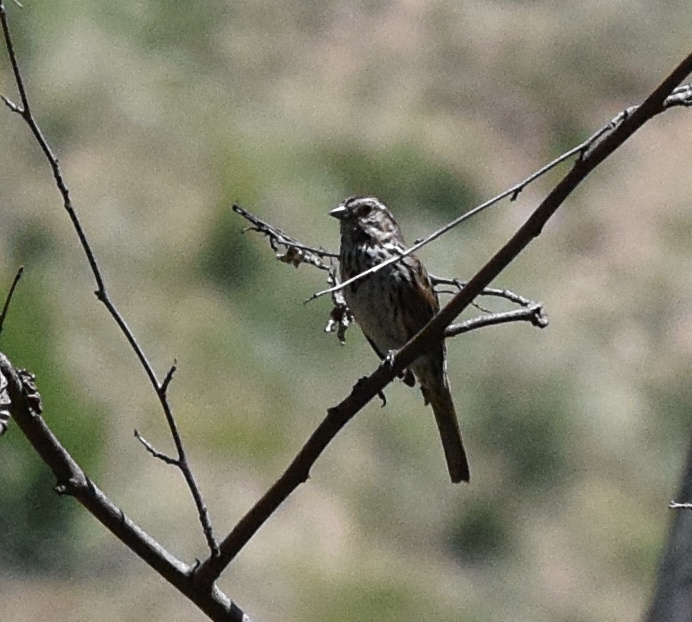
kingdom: Animalia
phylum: Chordata
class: Aves
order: Passeriformes
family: Passerellidae
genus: Melospiza
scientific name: Melospiza melodia
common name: Song sparrow
